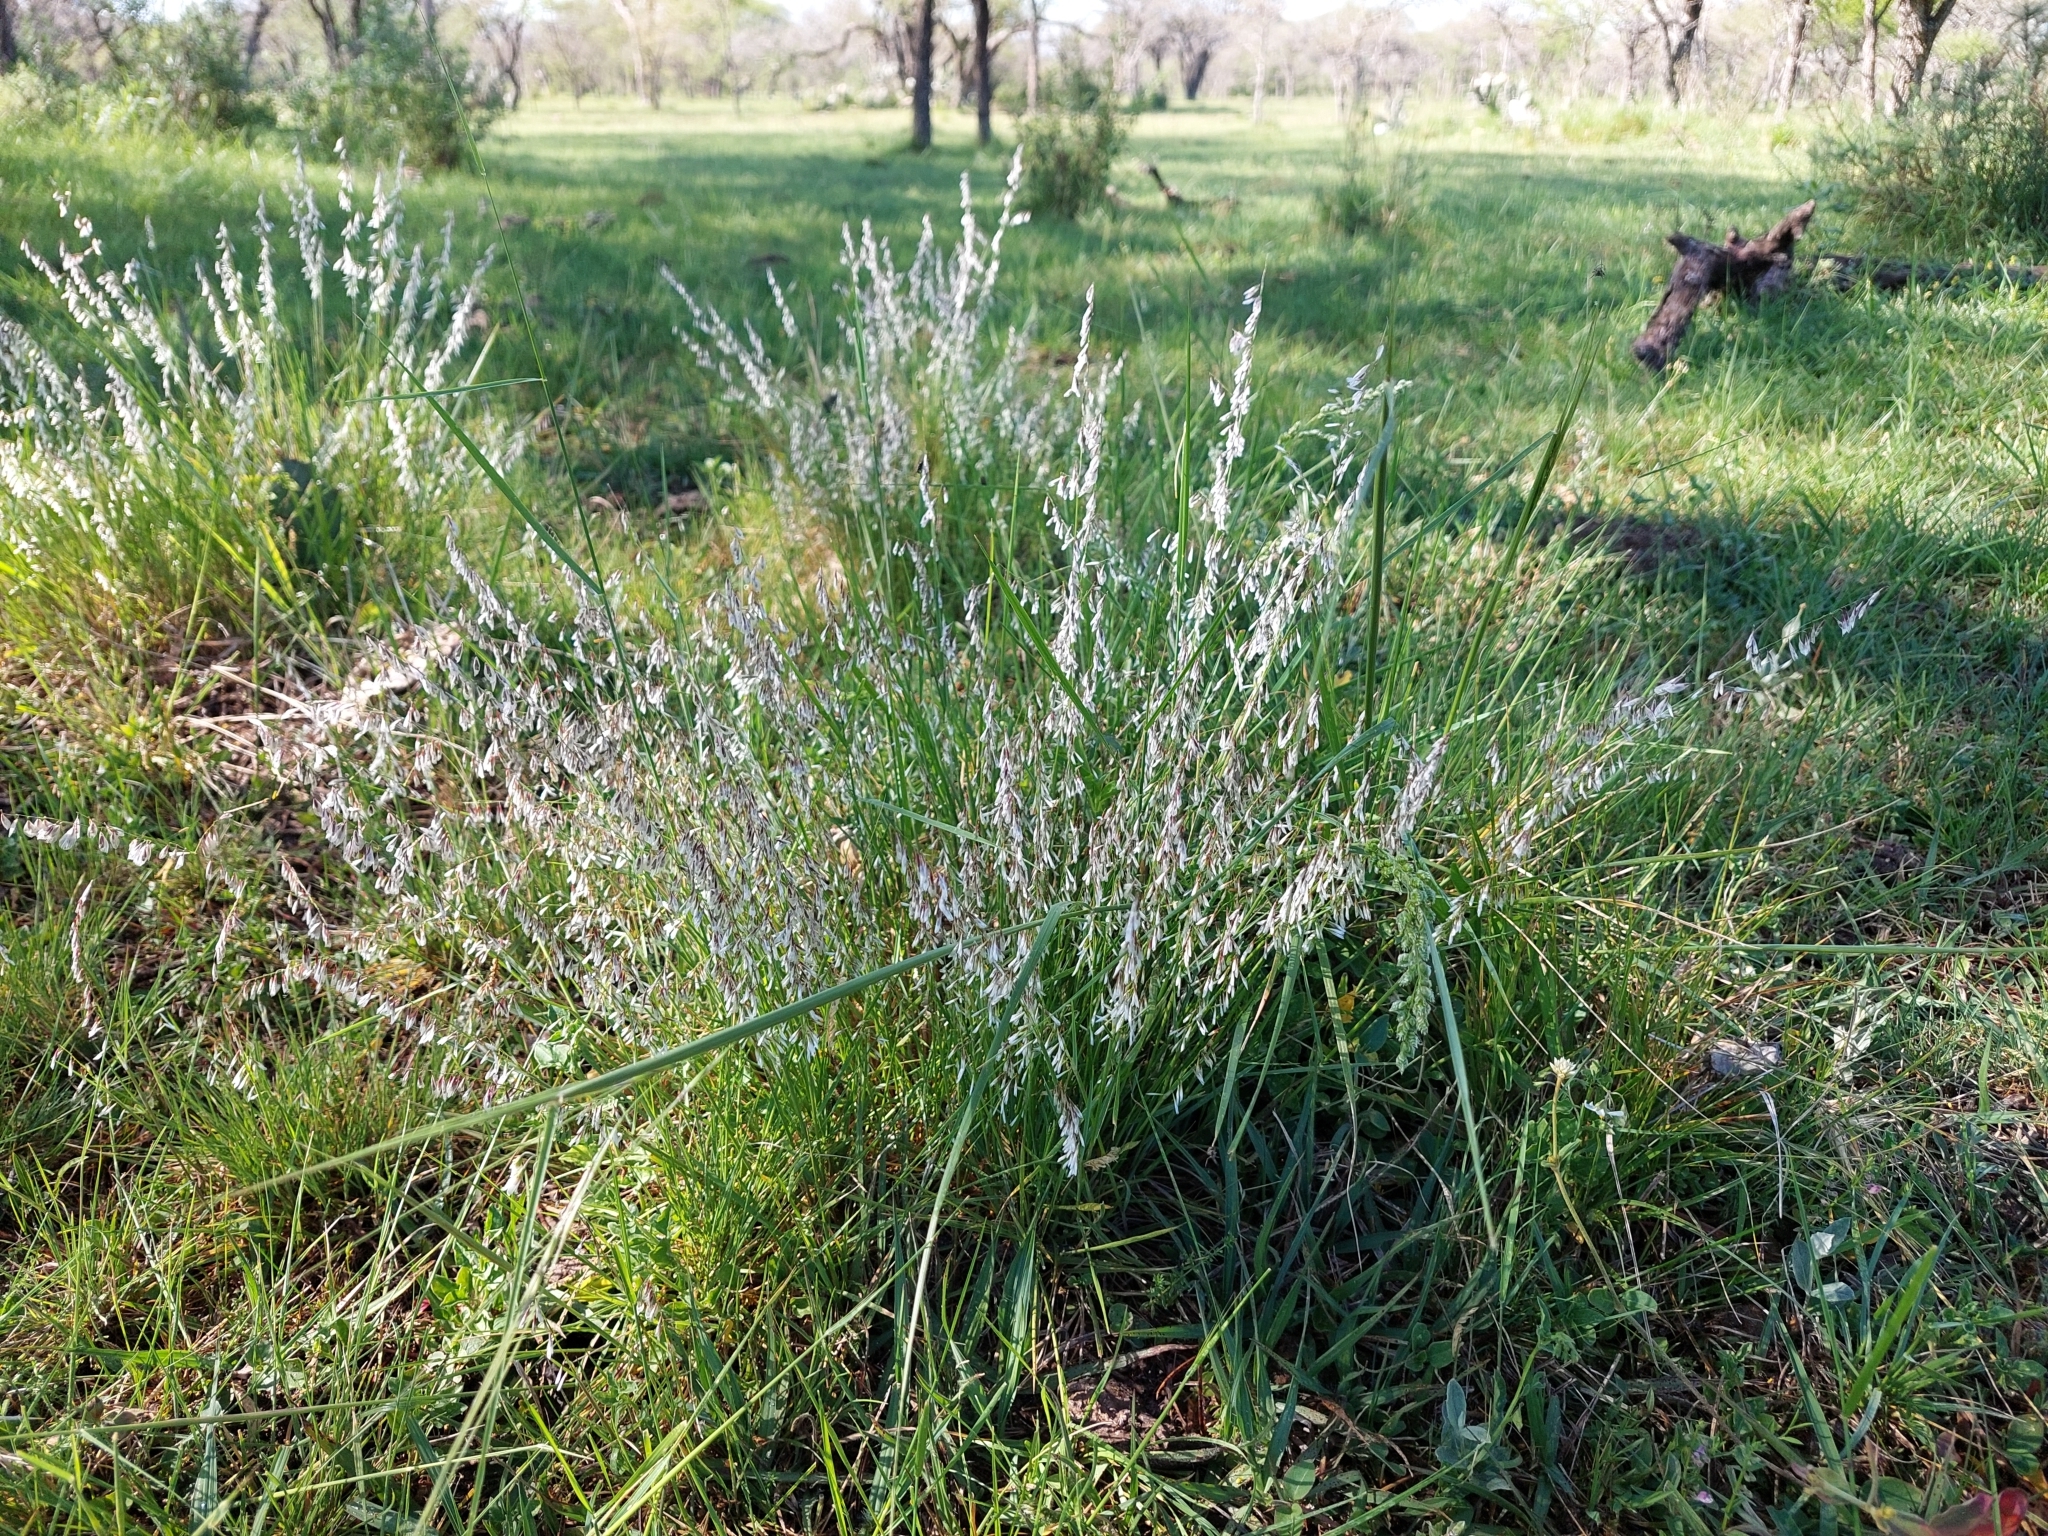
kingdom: Plantae
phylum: Tracheophyta
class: Liliopsida
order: Poales
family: Poaceae
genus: Melica
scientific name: Melica argyrea
